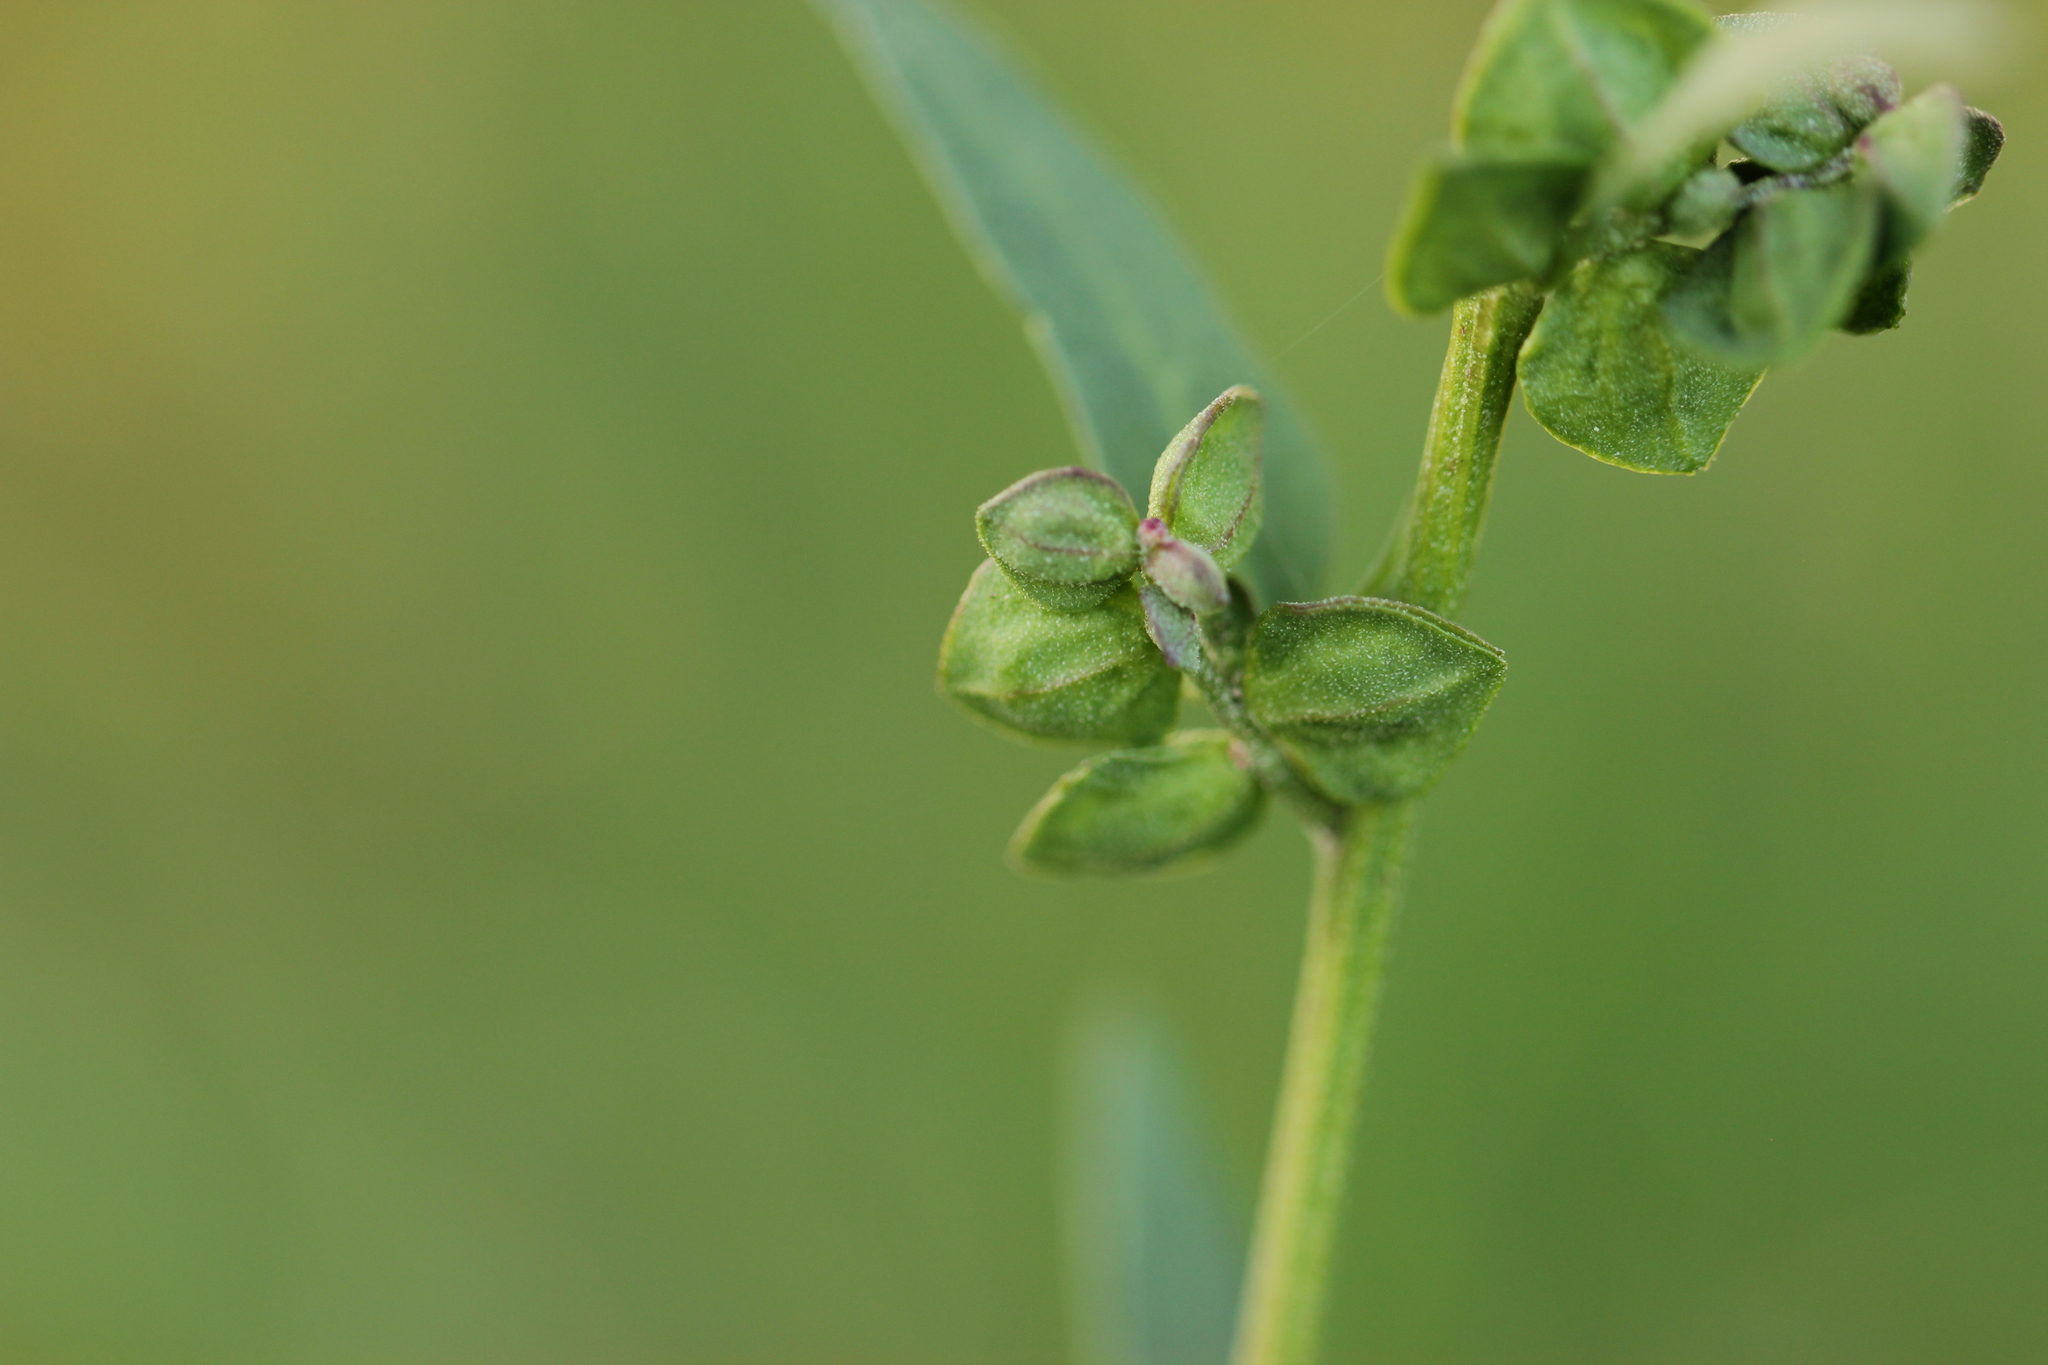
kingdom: Plantae
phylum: Tracheophyta
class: Magnoliopsida
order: Caryophyllales
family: Amaranthaceae
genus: Atriplex
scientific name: Atriplex patula
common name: Common orache
